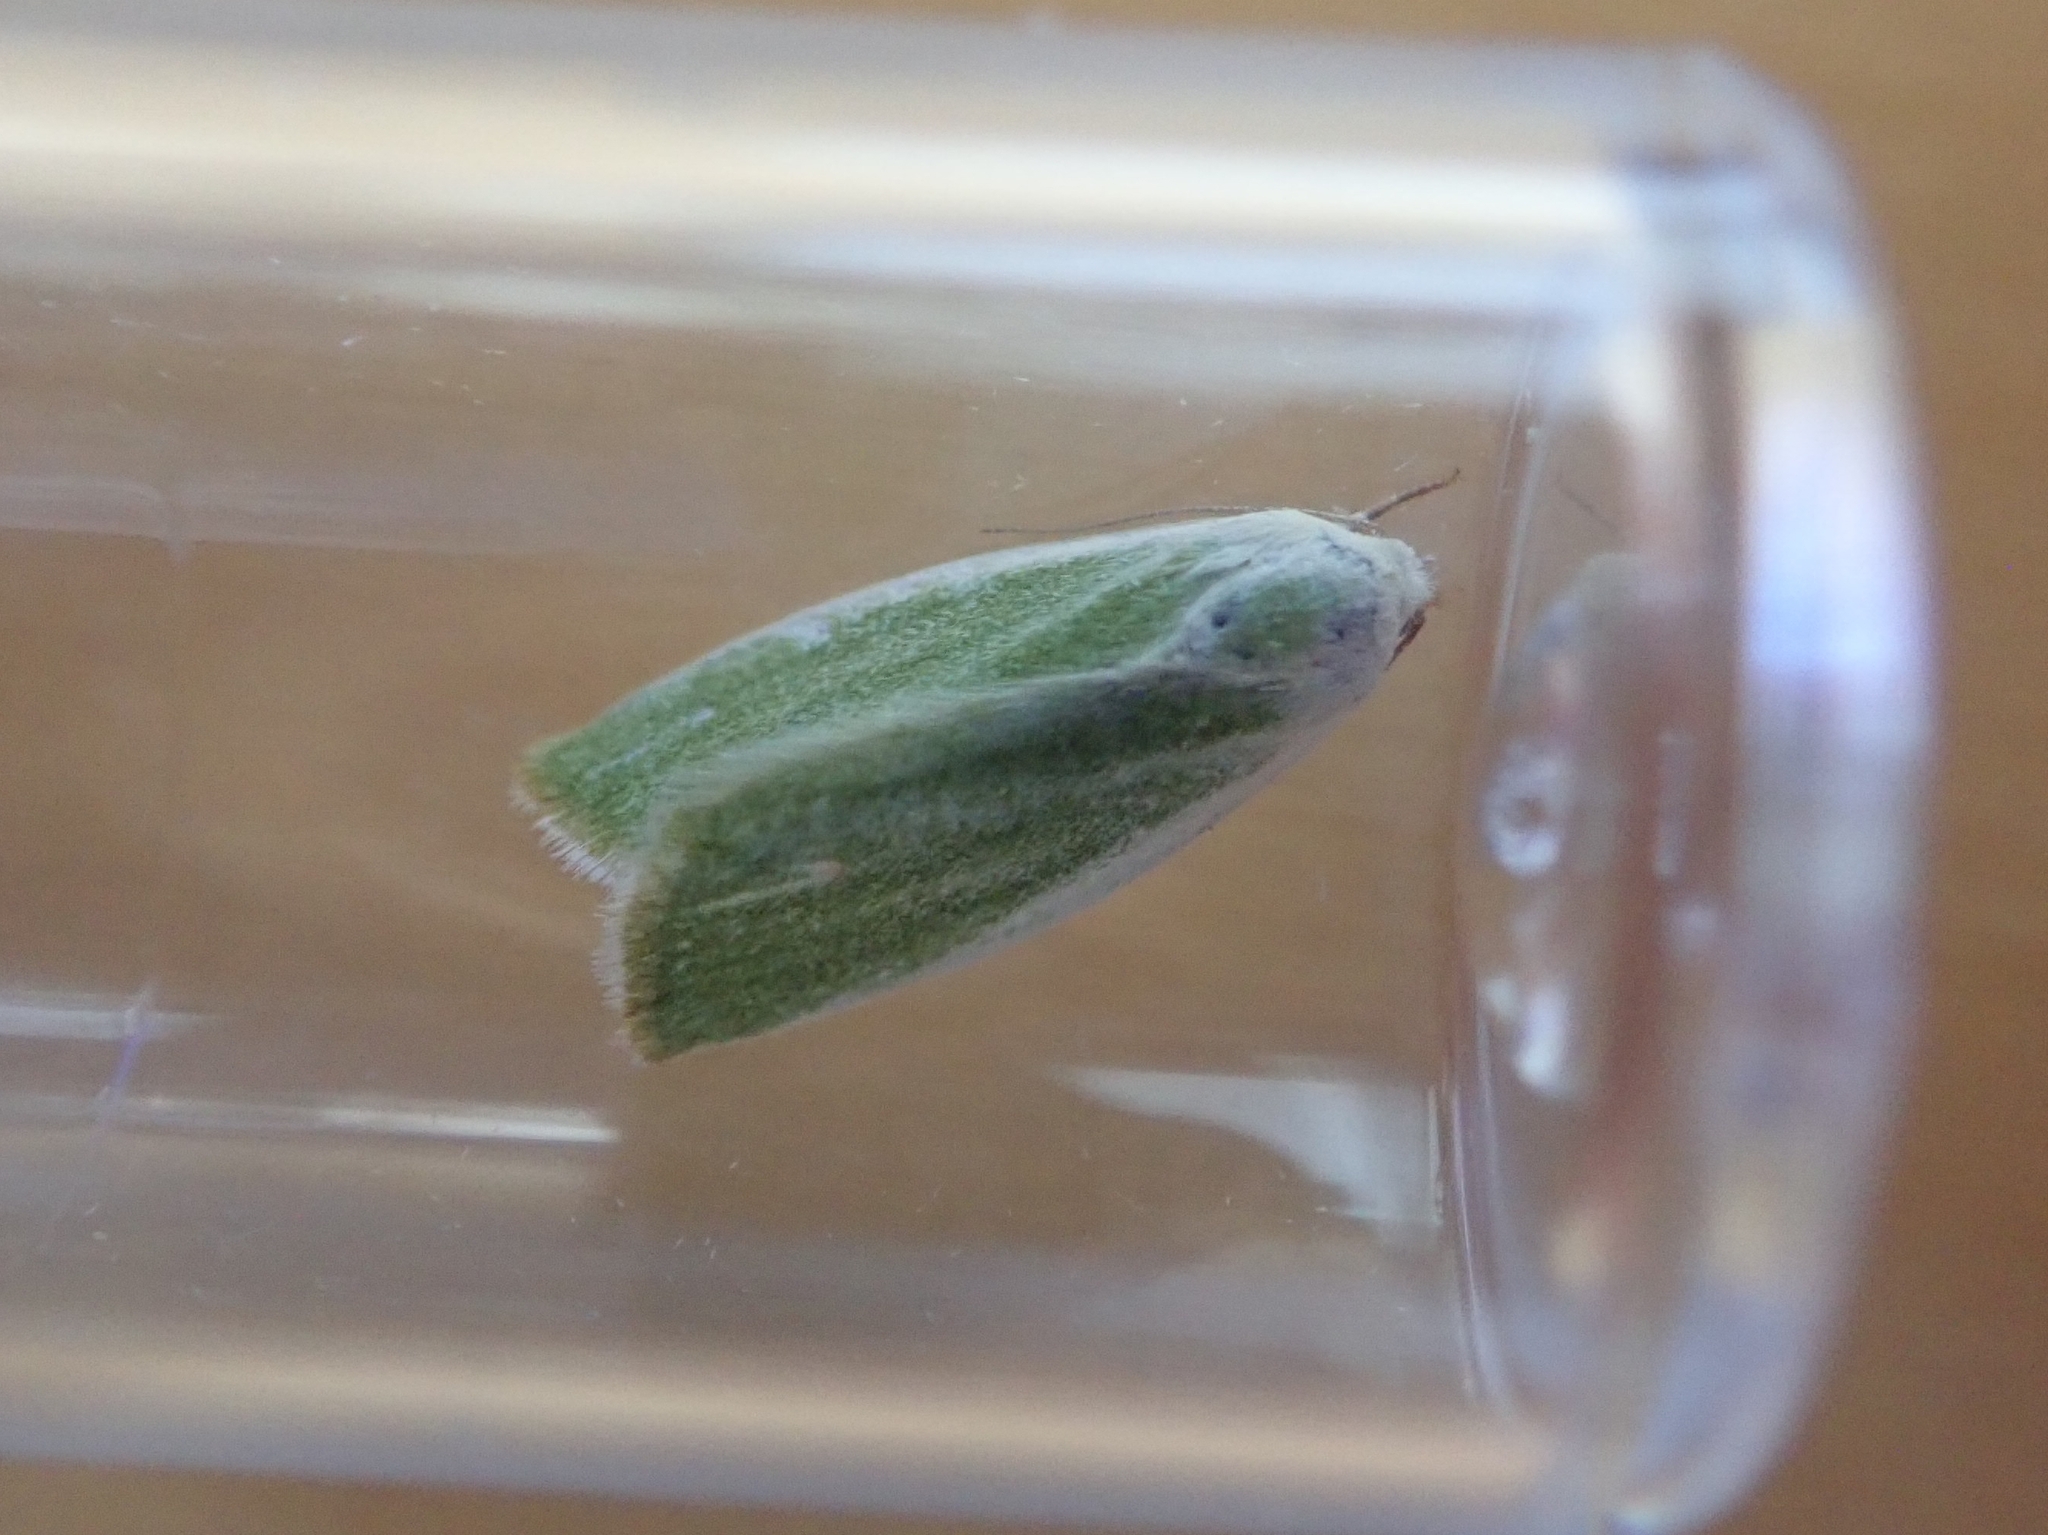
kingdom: Animalia
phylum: Arthropoda
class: Insecta
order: Lepidoptera
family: Nolidae
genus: Earias
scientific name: Earias clorana
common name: Cream-bordered green pea
